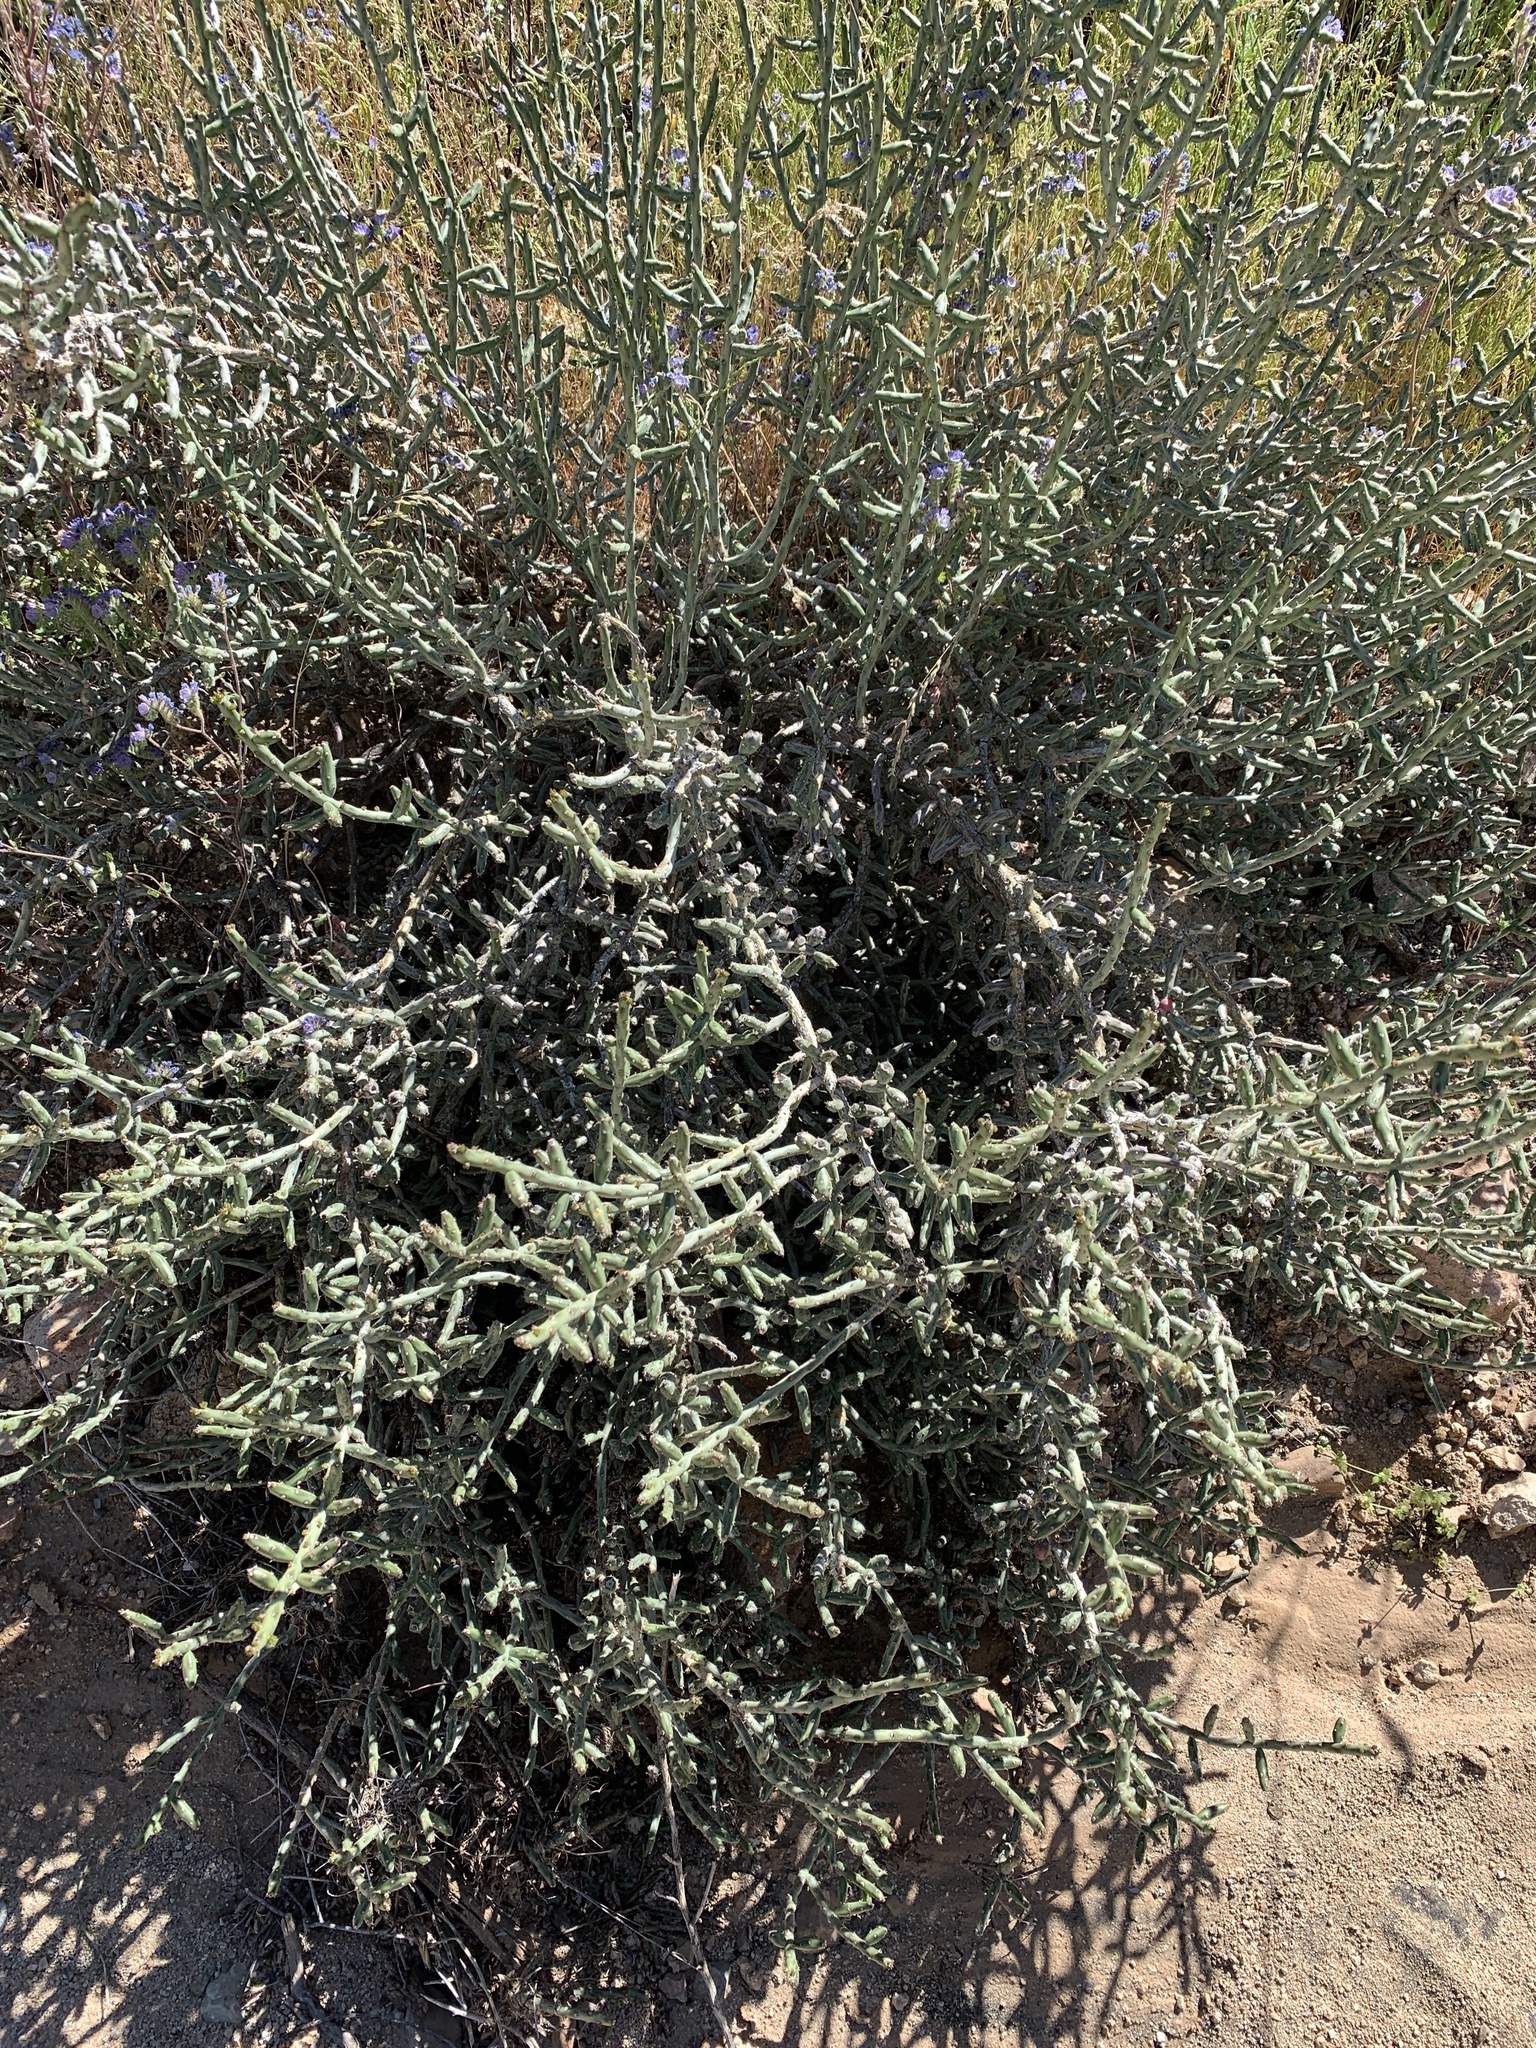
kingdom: Plantae
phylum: Tracheophyta
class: Magnoliopsida
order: Caryophyllales
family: Cactaceae
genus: Cylindropuntia
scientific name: Cylindropuntia leptocaulis
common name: Christmas cactus
